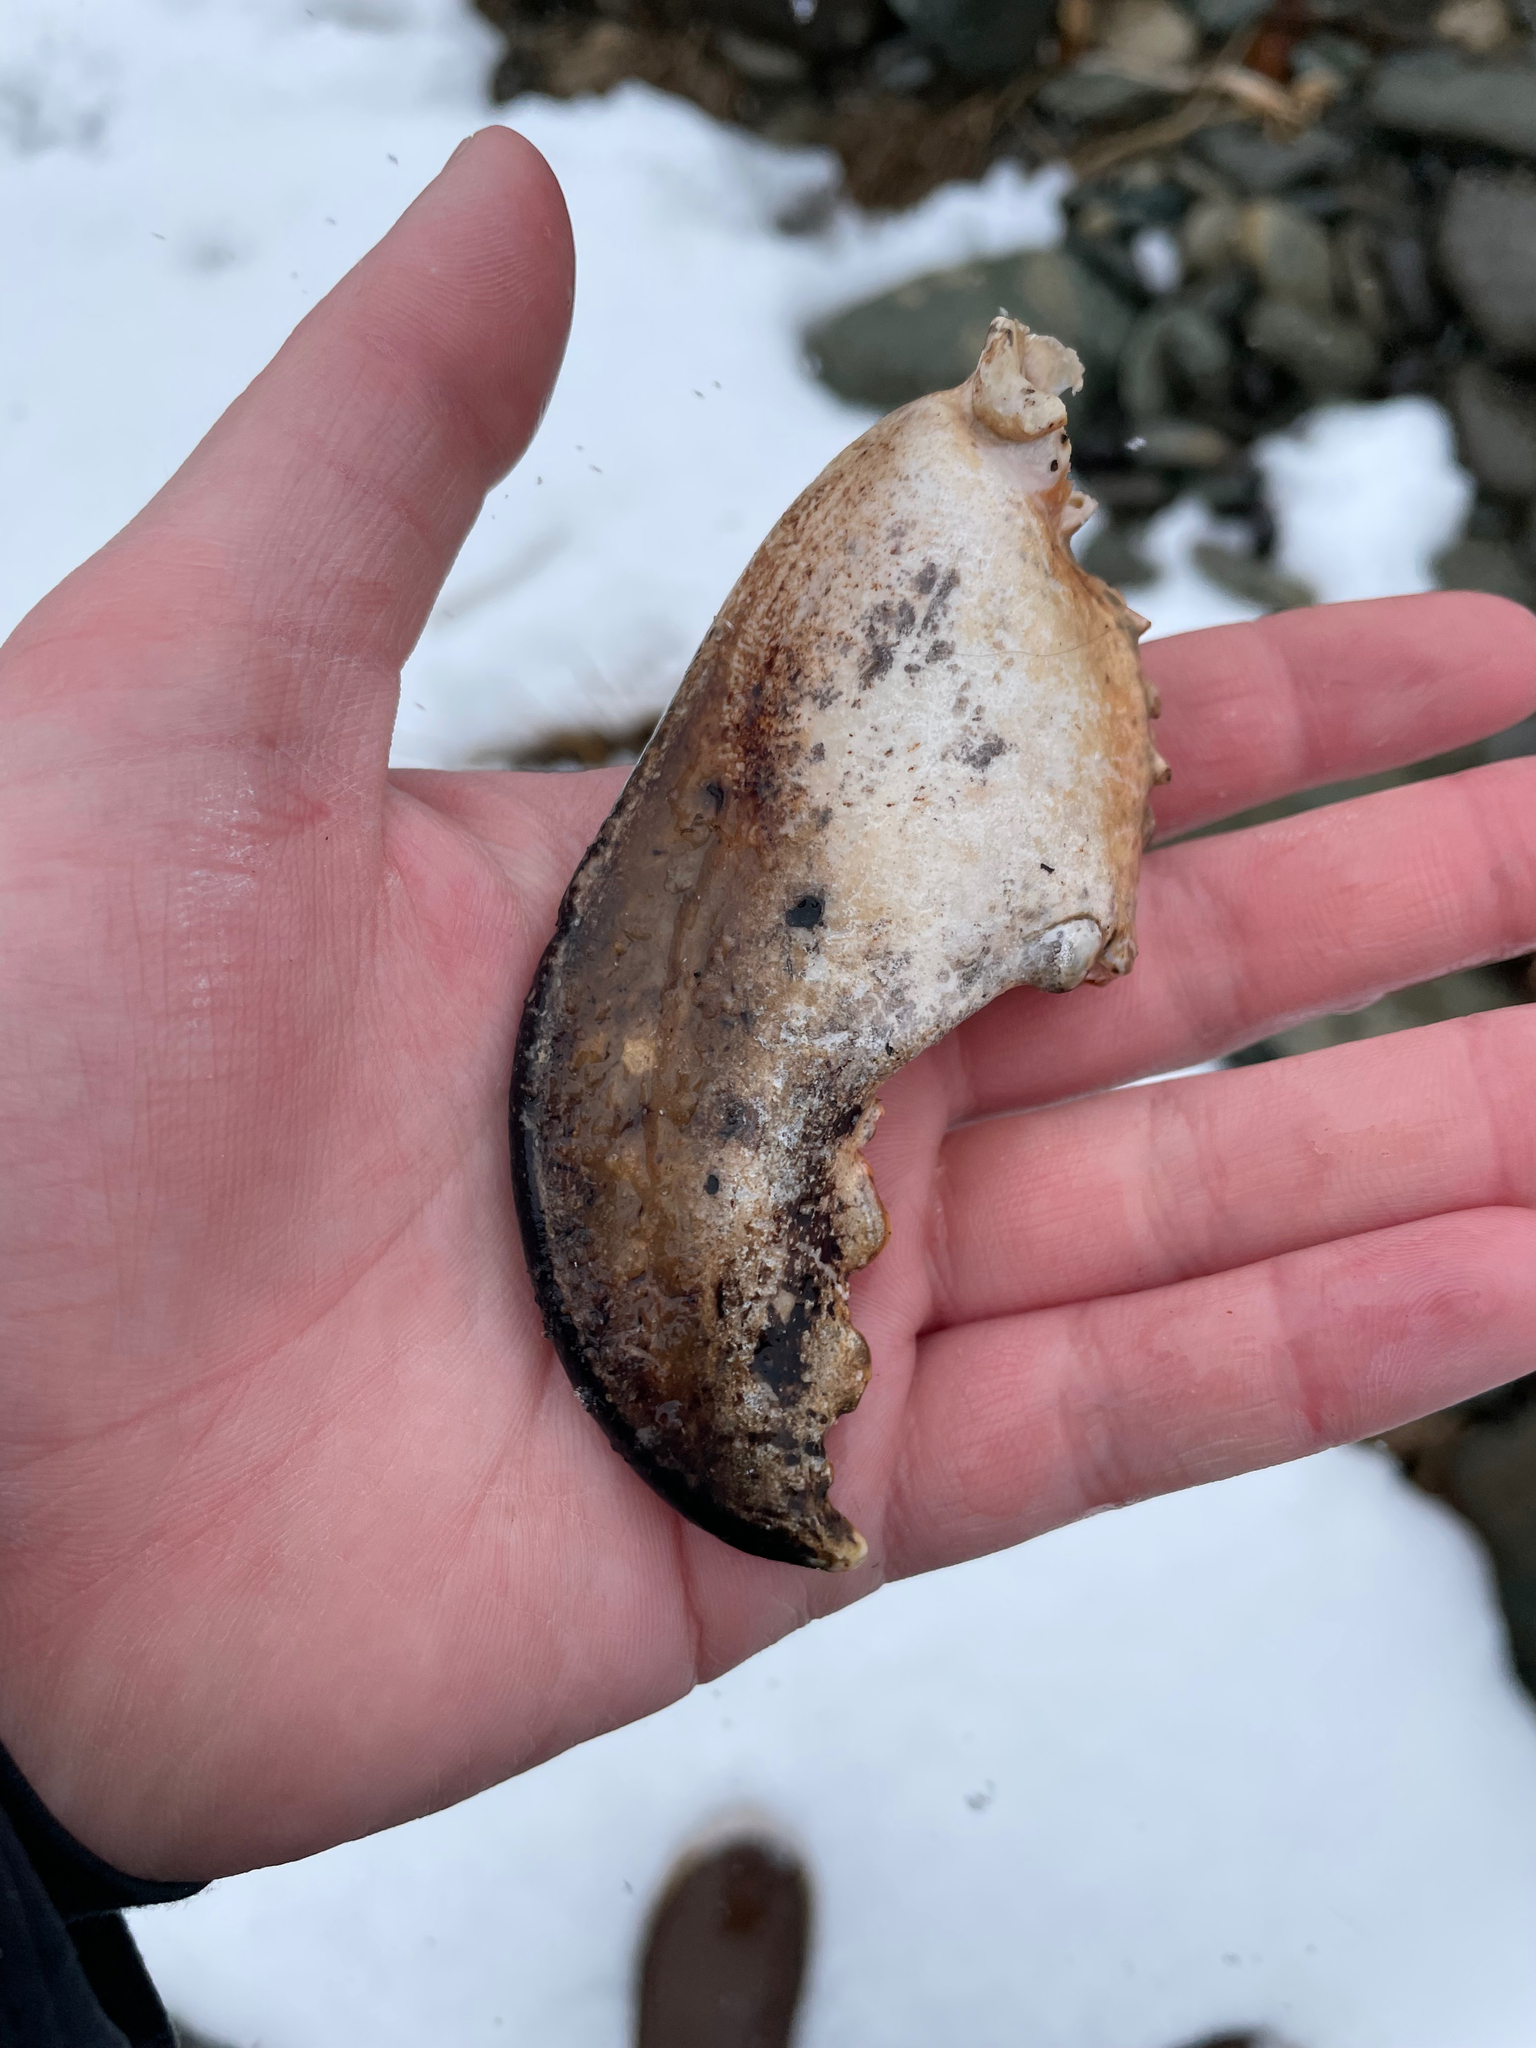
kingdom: Animalia
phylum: Arthropoda
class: Malacostraca
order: Decapoda
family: Nephropidae
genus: Homarus
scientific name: Homarus americanus
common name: American lobster
